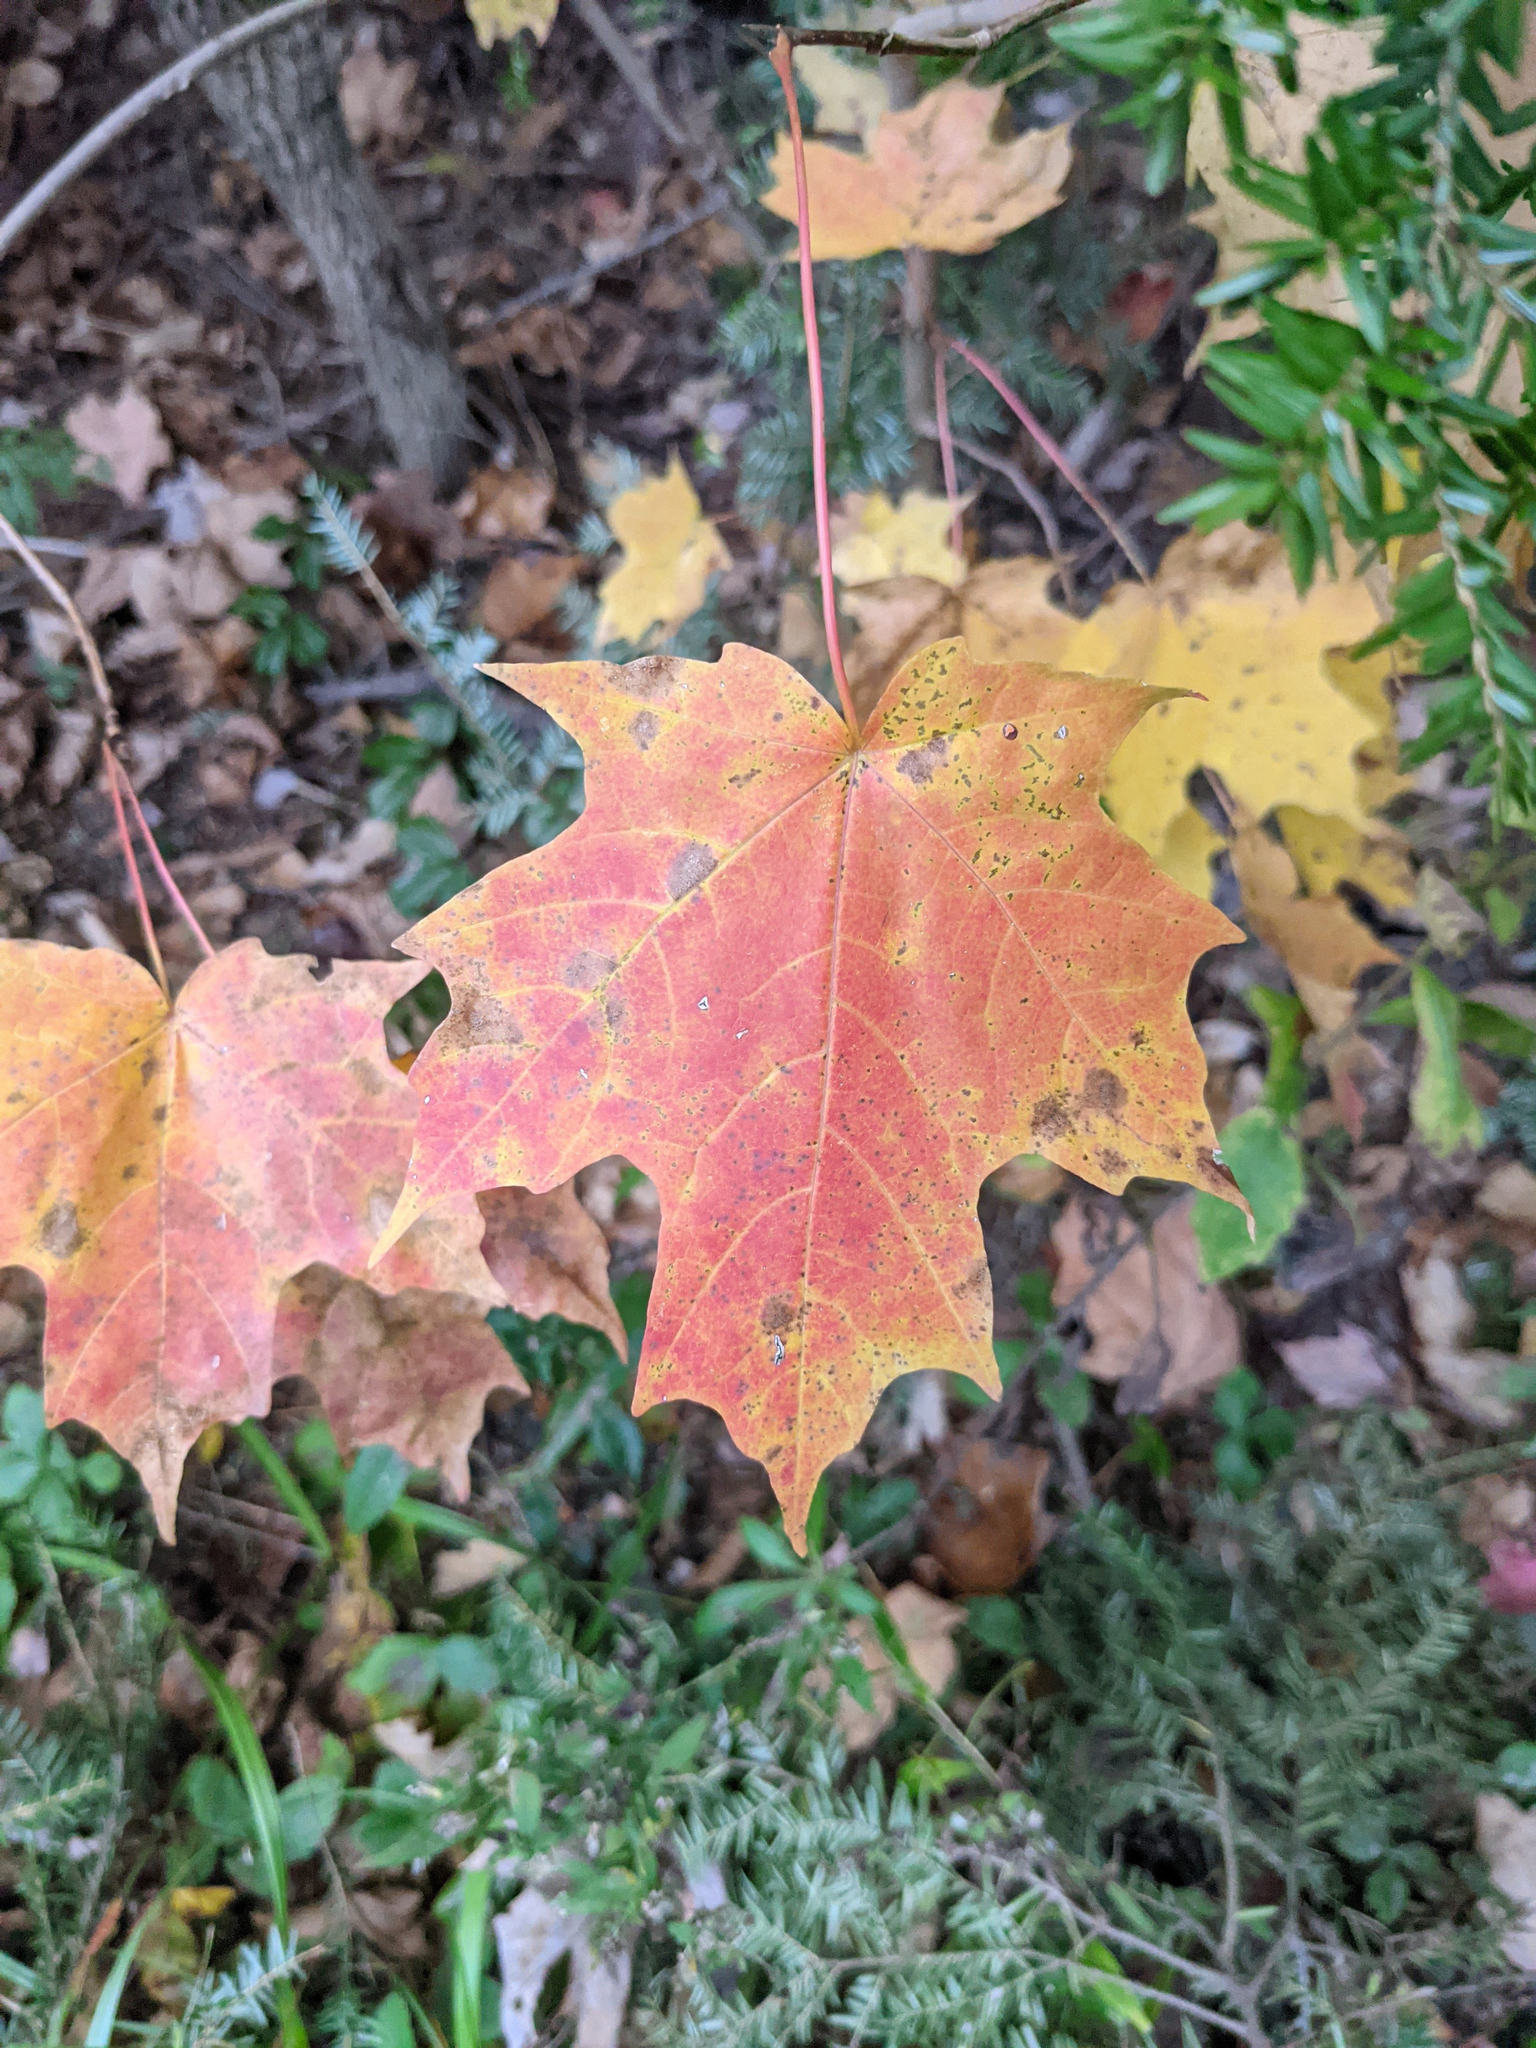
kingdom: Plantae
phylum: Tracheophyta
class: Magnoliopsida
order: Sapindales
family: Sapindaceae
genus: Acer
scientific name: Acer saccharum
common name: Sugar maple
